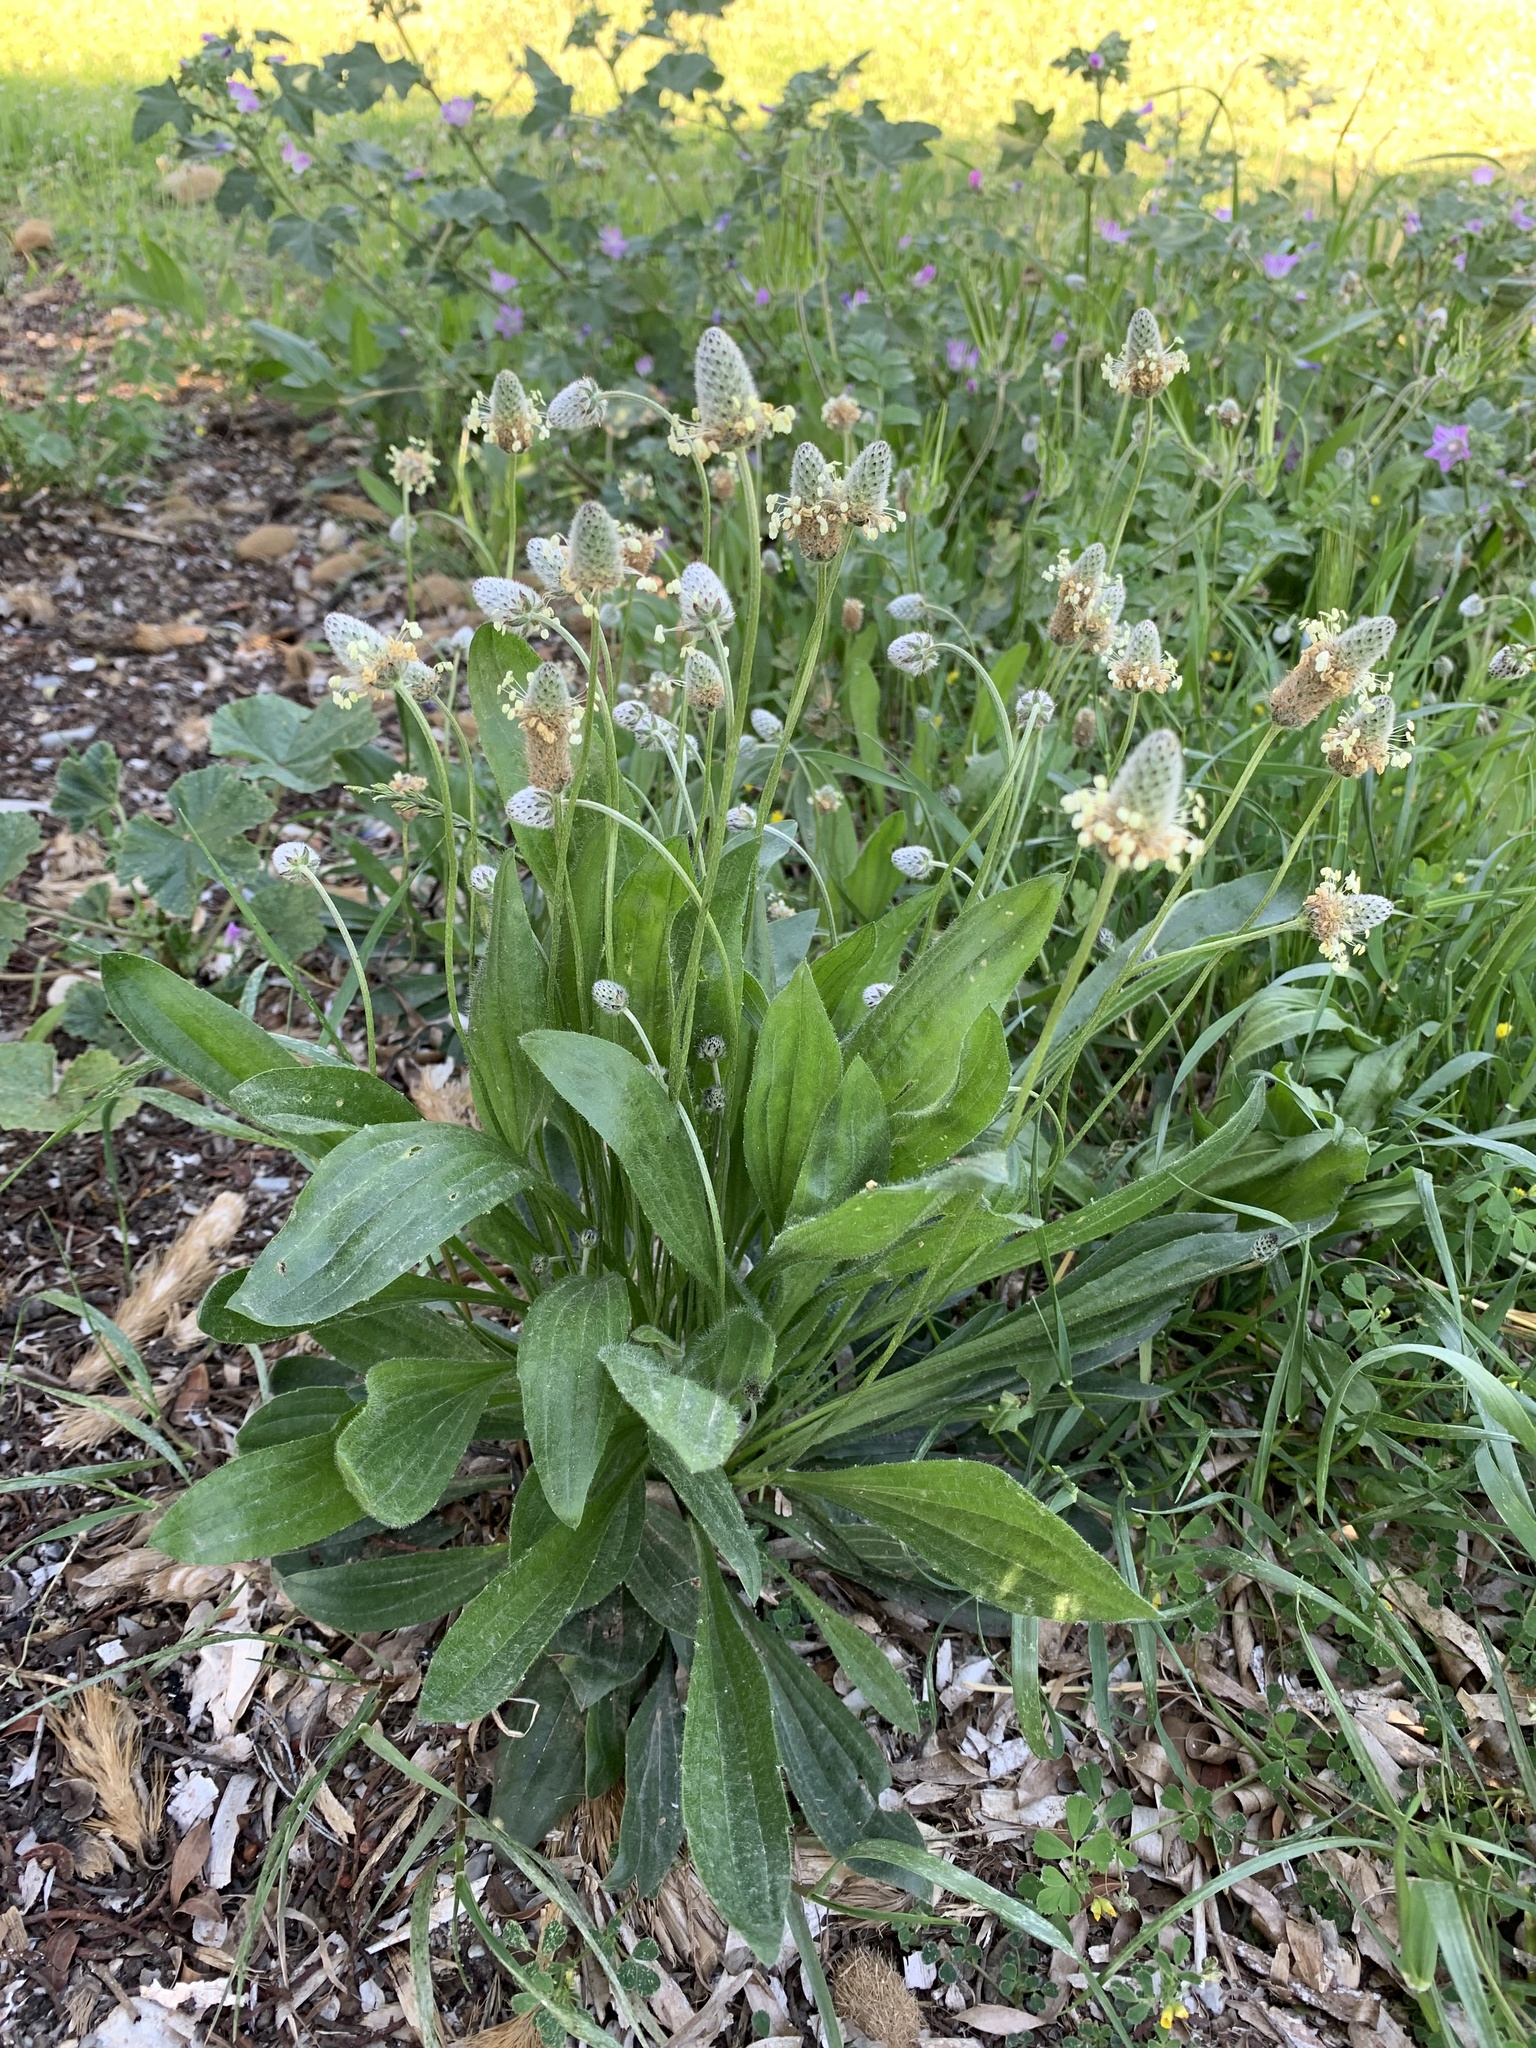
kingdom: Plantae
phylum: Tracheophyta
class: Magnoliopsida
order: Lamiales
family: Plantaginaceae
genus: Plantago
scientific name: Plantago lagopus
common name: Hare-foot plantain
